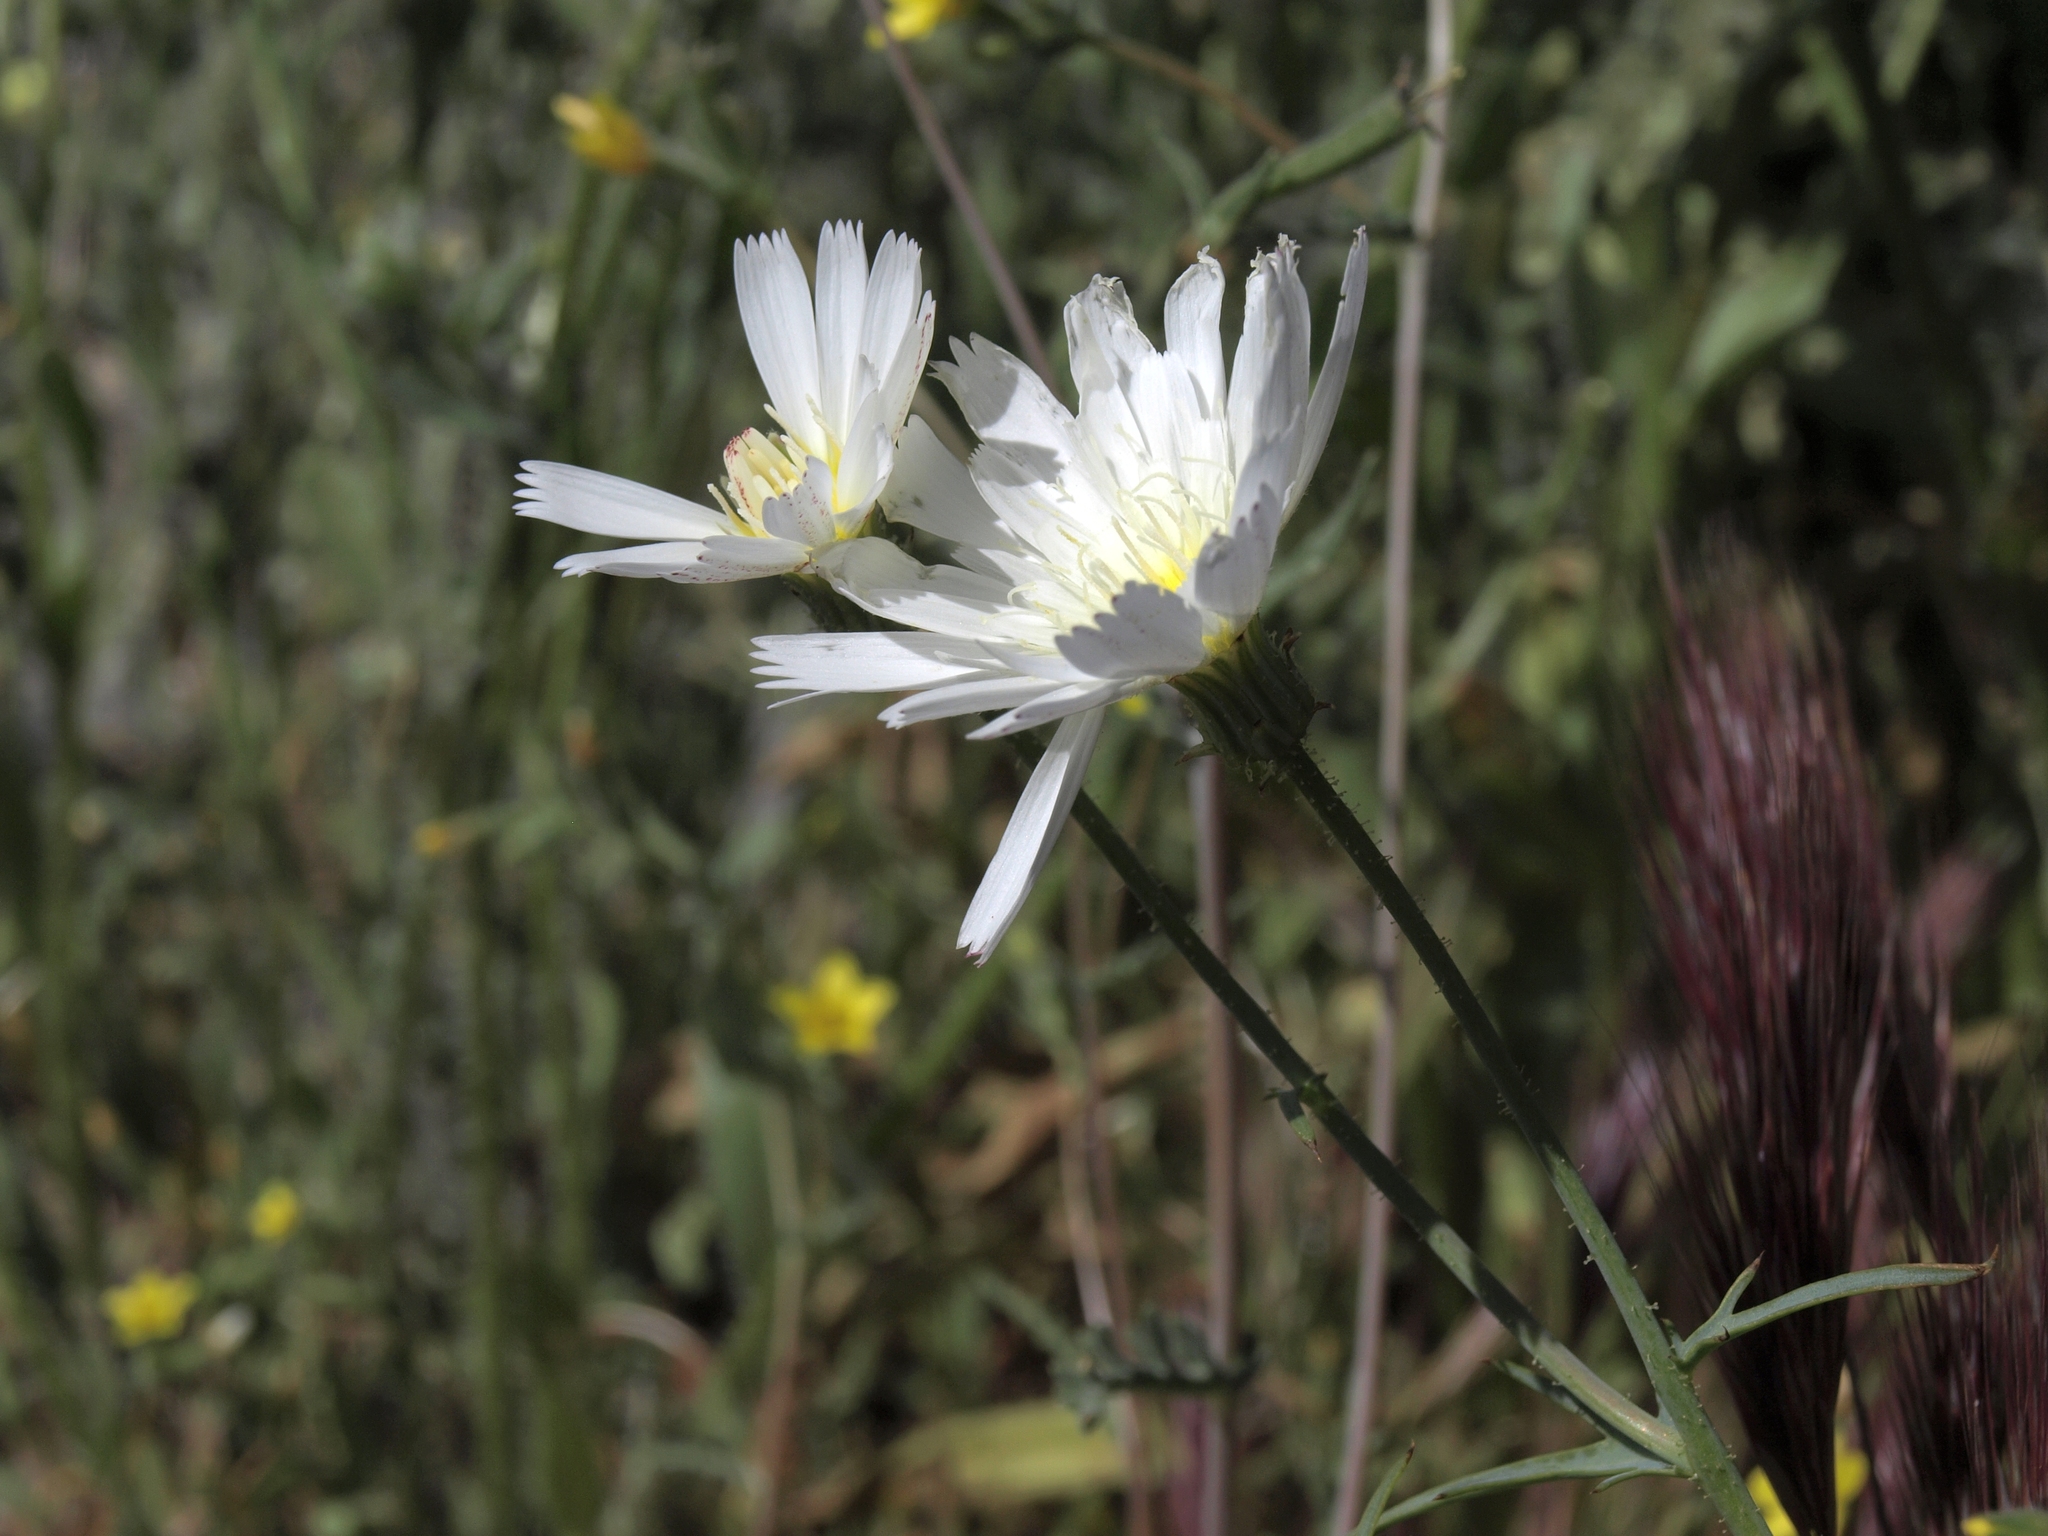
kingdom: Plantae
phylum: Tracheophyta
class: Magnoliopsida
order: Asterales
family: Asteraceae
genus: Calycoseris
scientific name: Calycoseris wrightii
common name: White tackstem
